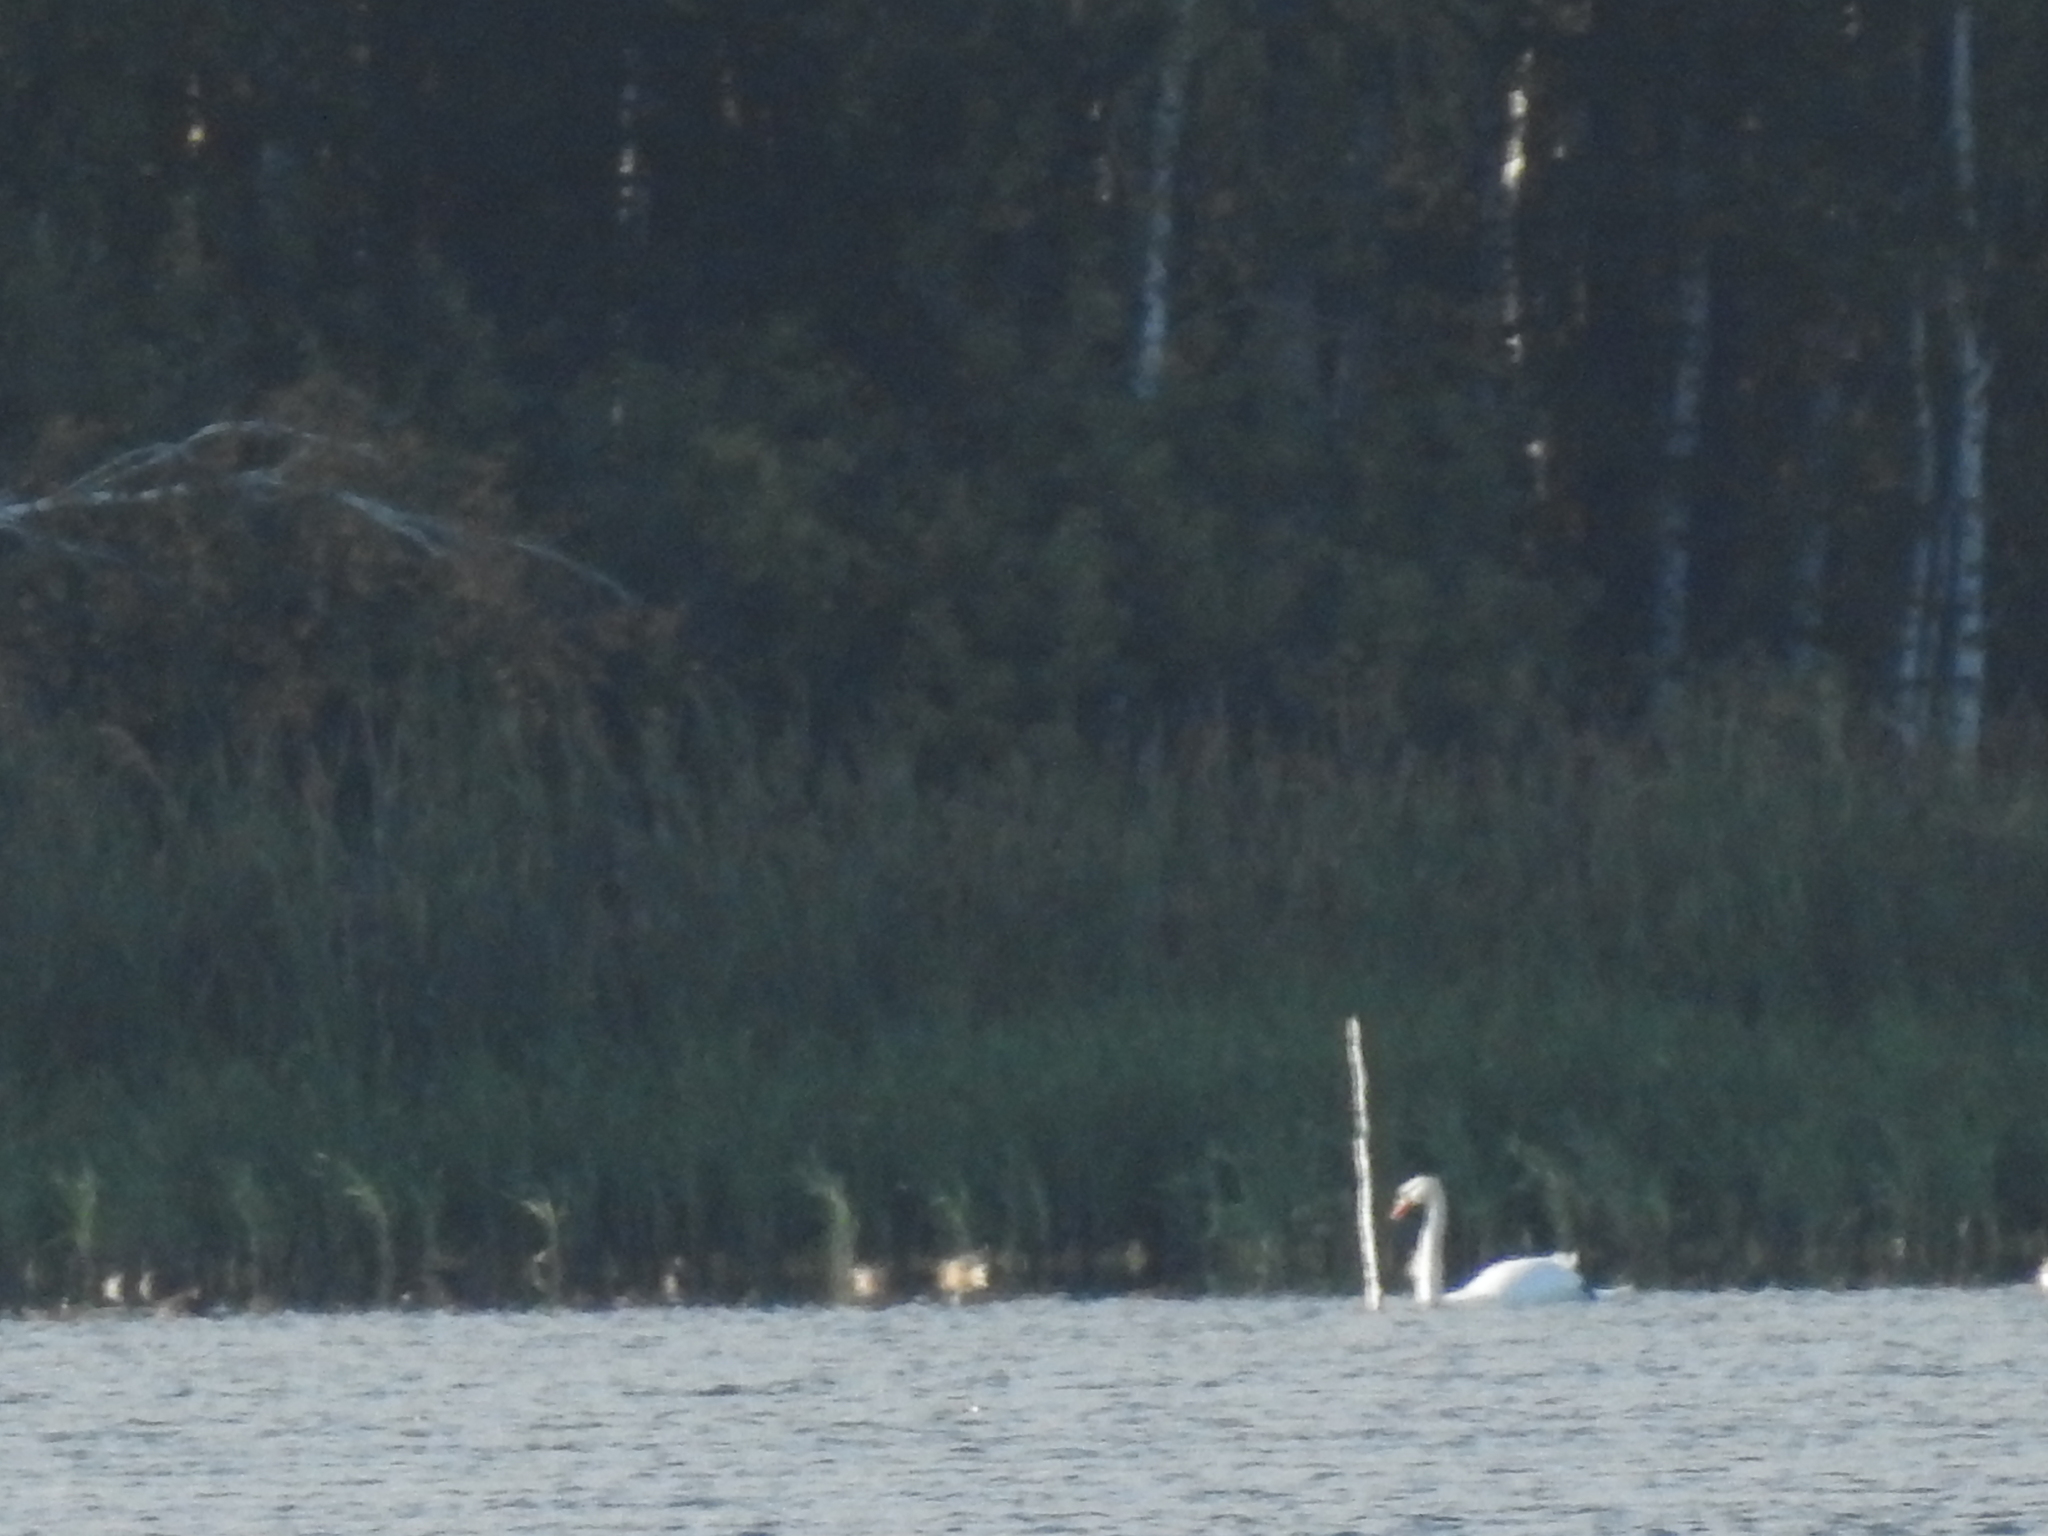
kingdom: Animalia
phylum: Chordata
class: Aves
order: Anseriformes
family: Anatidae
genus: Cygnus
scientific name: Cygnus olor
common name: Mute swan
